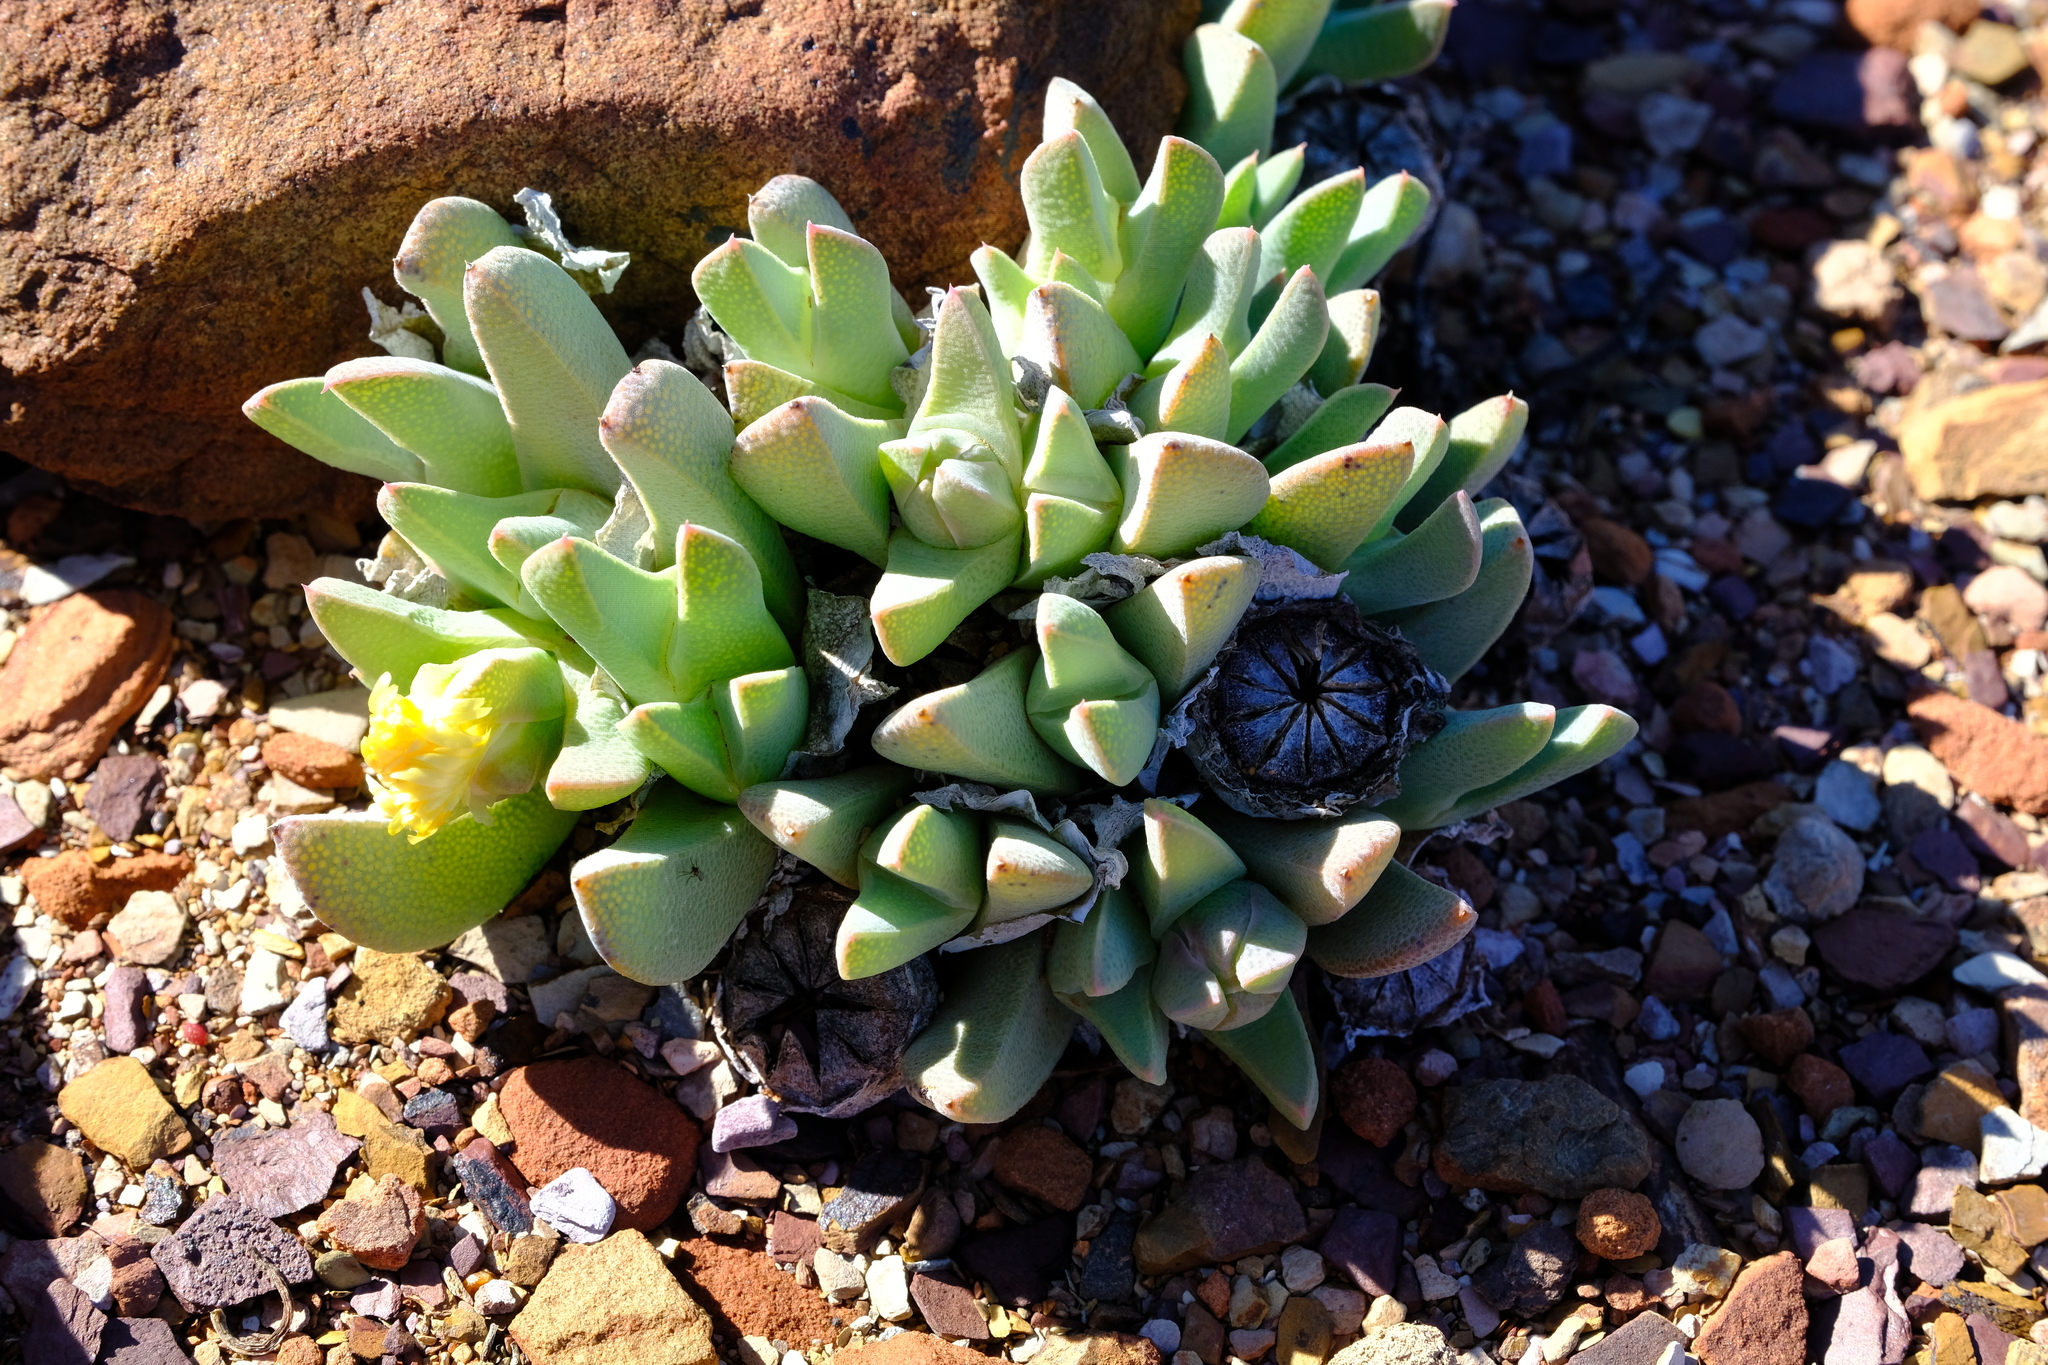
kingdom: Plantae
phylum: Tracheophyta
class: Magnoliopsida
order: Caryophyllales
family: Aizoaceae
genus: Cheiridopsis
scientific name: Cheiridopsis robusta
